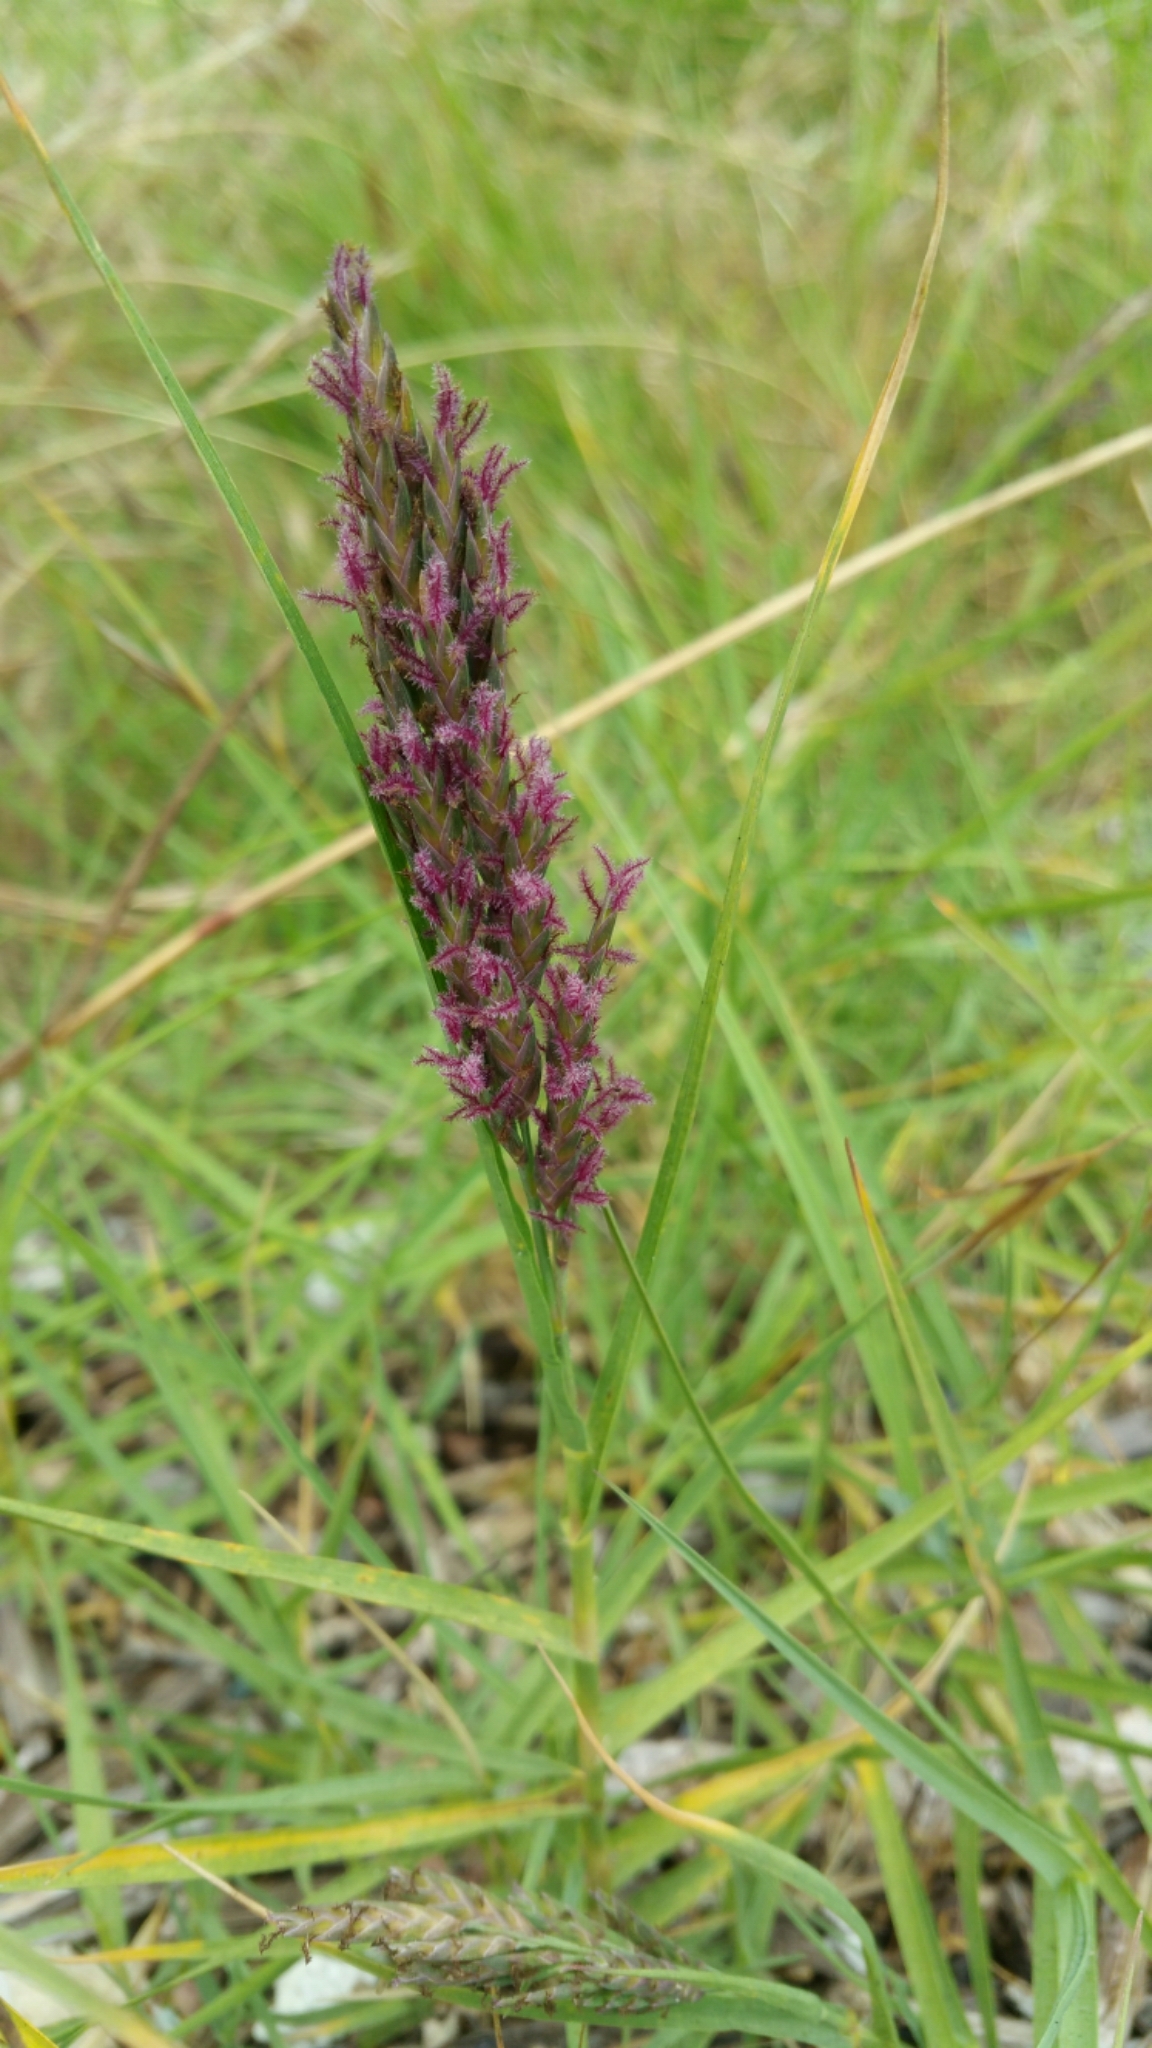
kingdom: Plantae
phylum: Tracheophyta
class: Liliopsida
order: Poales
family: Poaceae
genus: Distichlis
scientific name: Distichlis spicata
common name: Saltgrass
